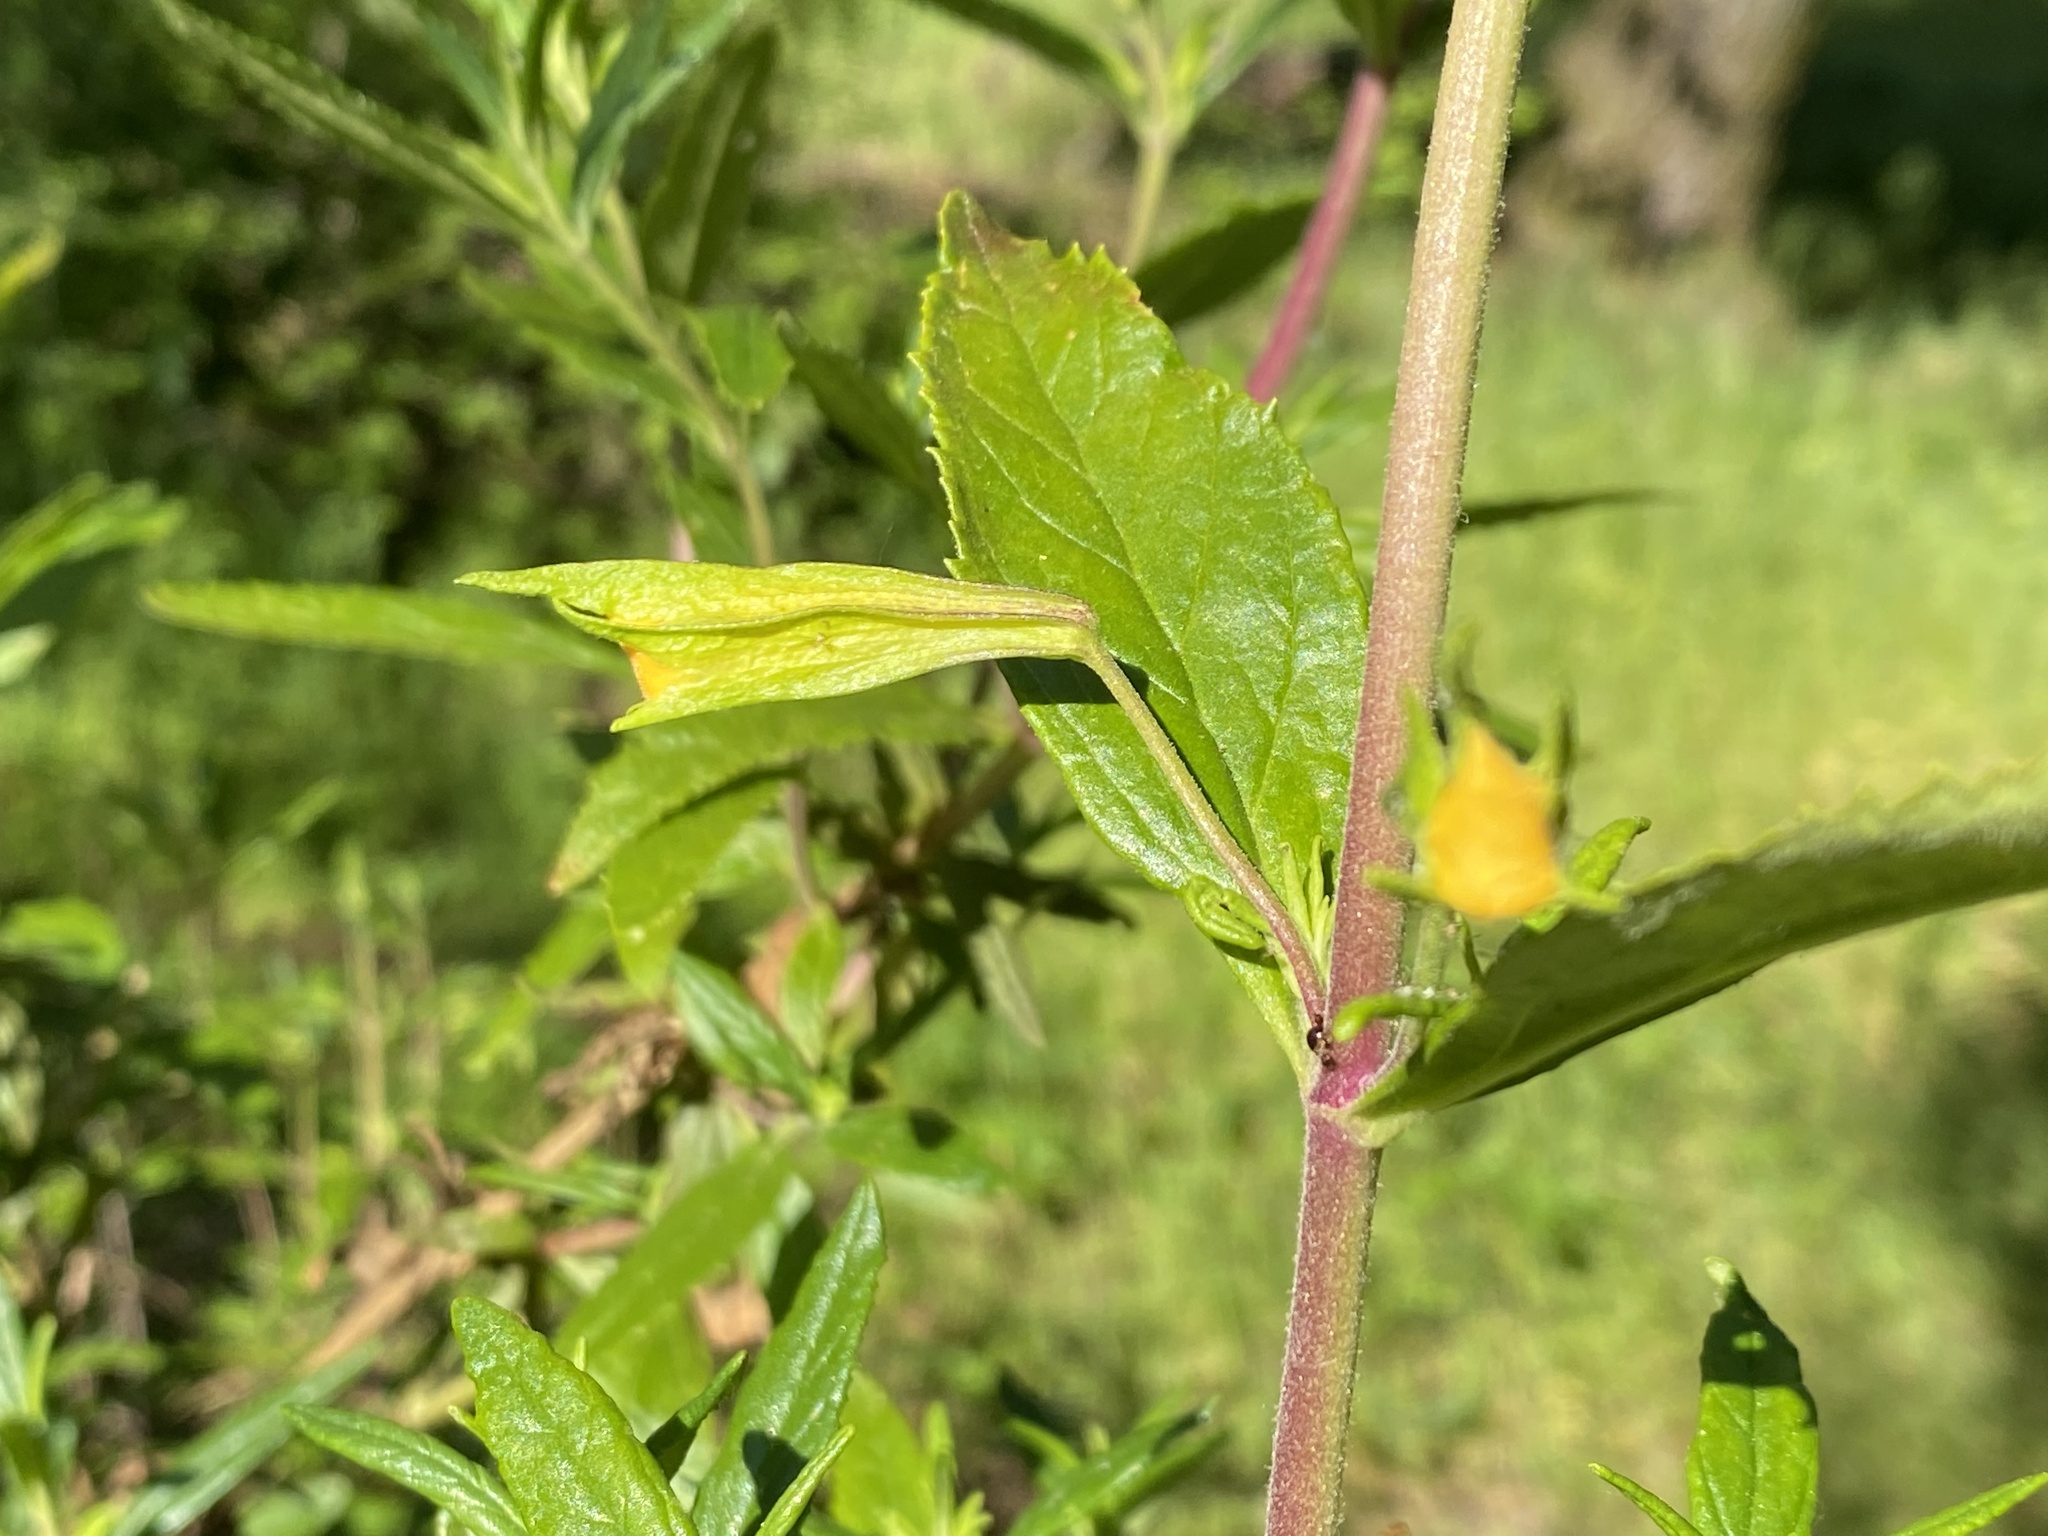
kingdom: Plantae
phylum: Tracheophyta
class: Magnoliopsida
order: Lamiales
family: Phrymaceae
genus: Diplacus
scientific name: Diplacus aurantiacus
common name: Bush monkey-flower
